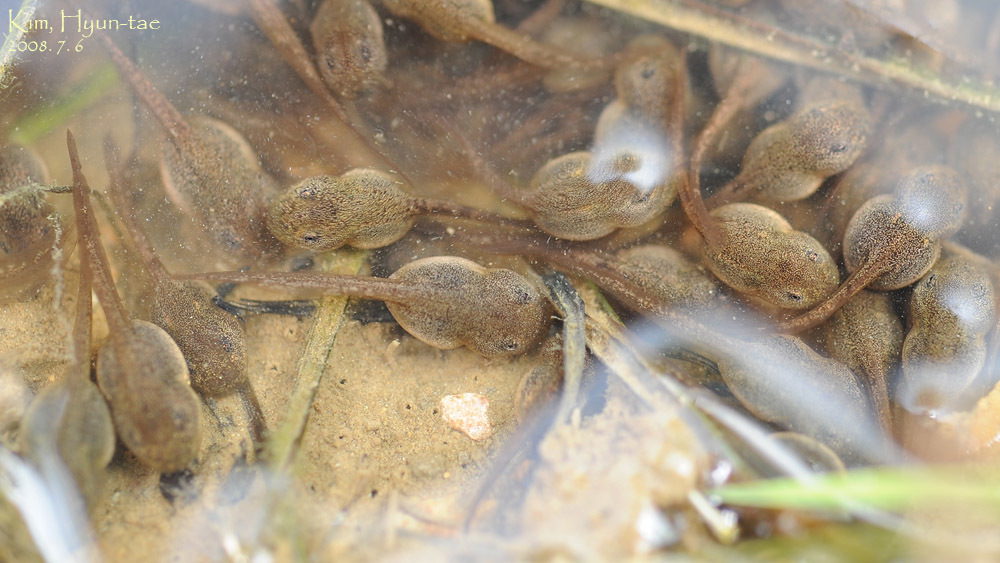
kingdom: Animalia
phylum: Chordata
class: Amphibia
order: Anura
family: Hylidae
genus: Dryophytes
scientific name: Dryophytes japonicus
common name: Japanese treefrog
